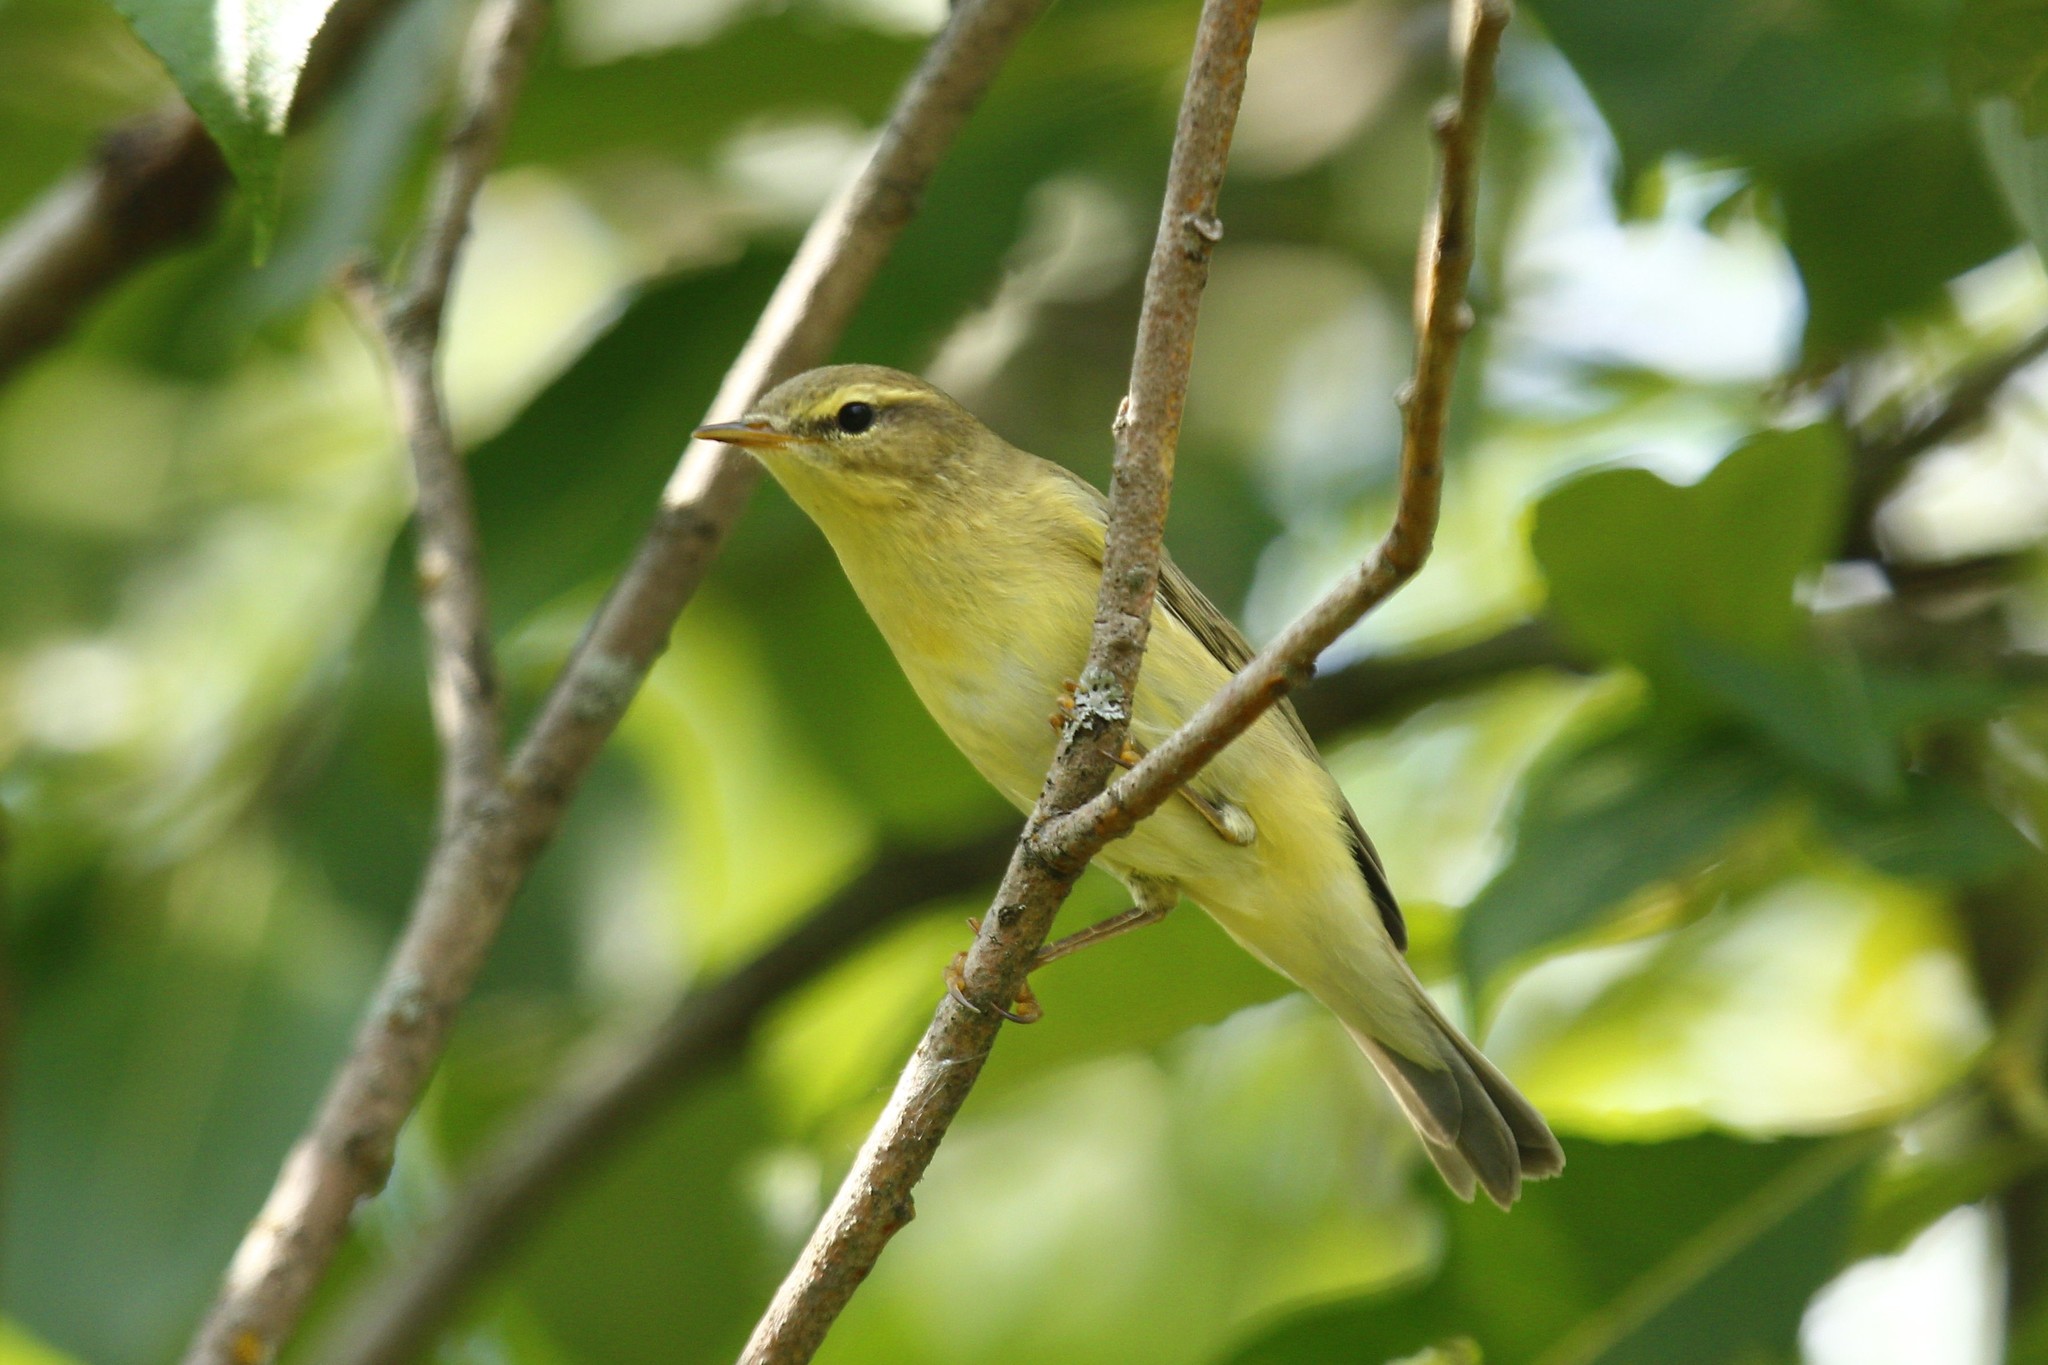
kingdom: Animalia
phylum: Chordata
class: Aves
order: Passeriformes
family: Phylloscopidae
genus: Phylloscopus
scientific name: Phylloscopus trochilus
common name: Willow warbler
